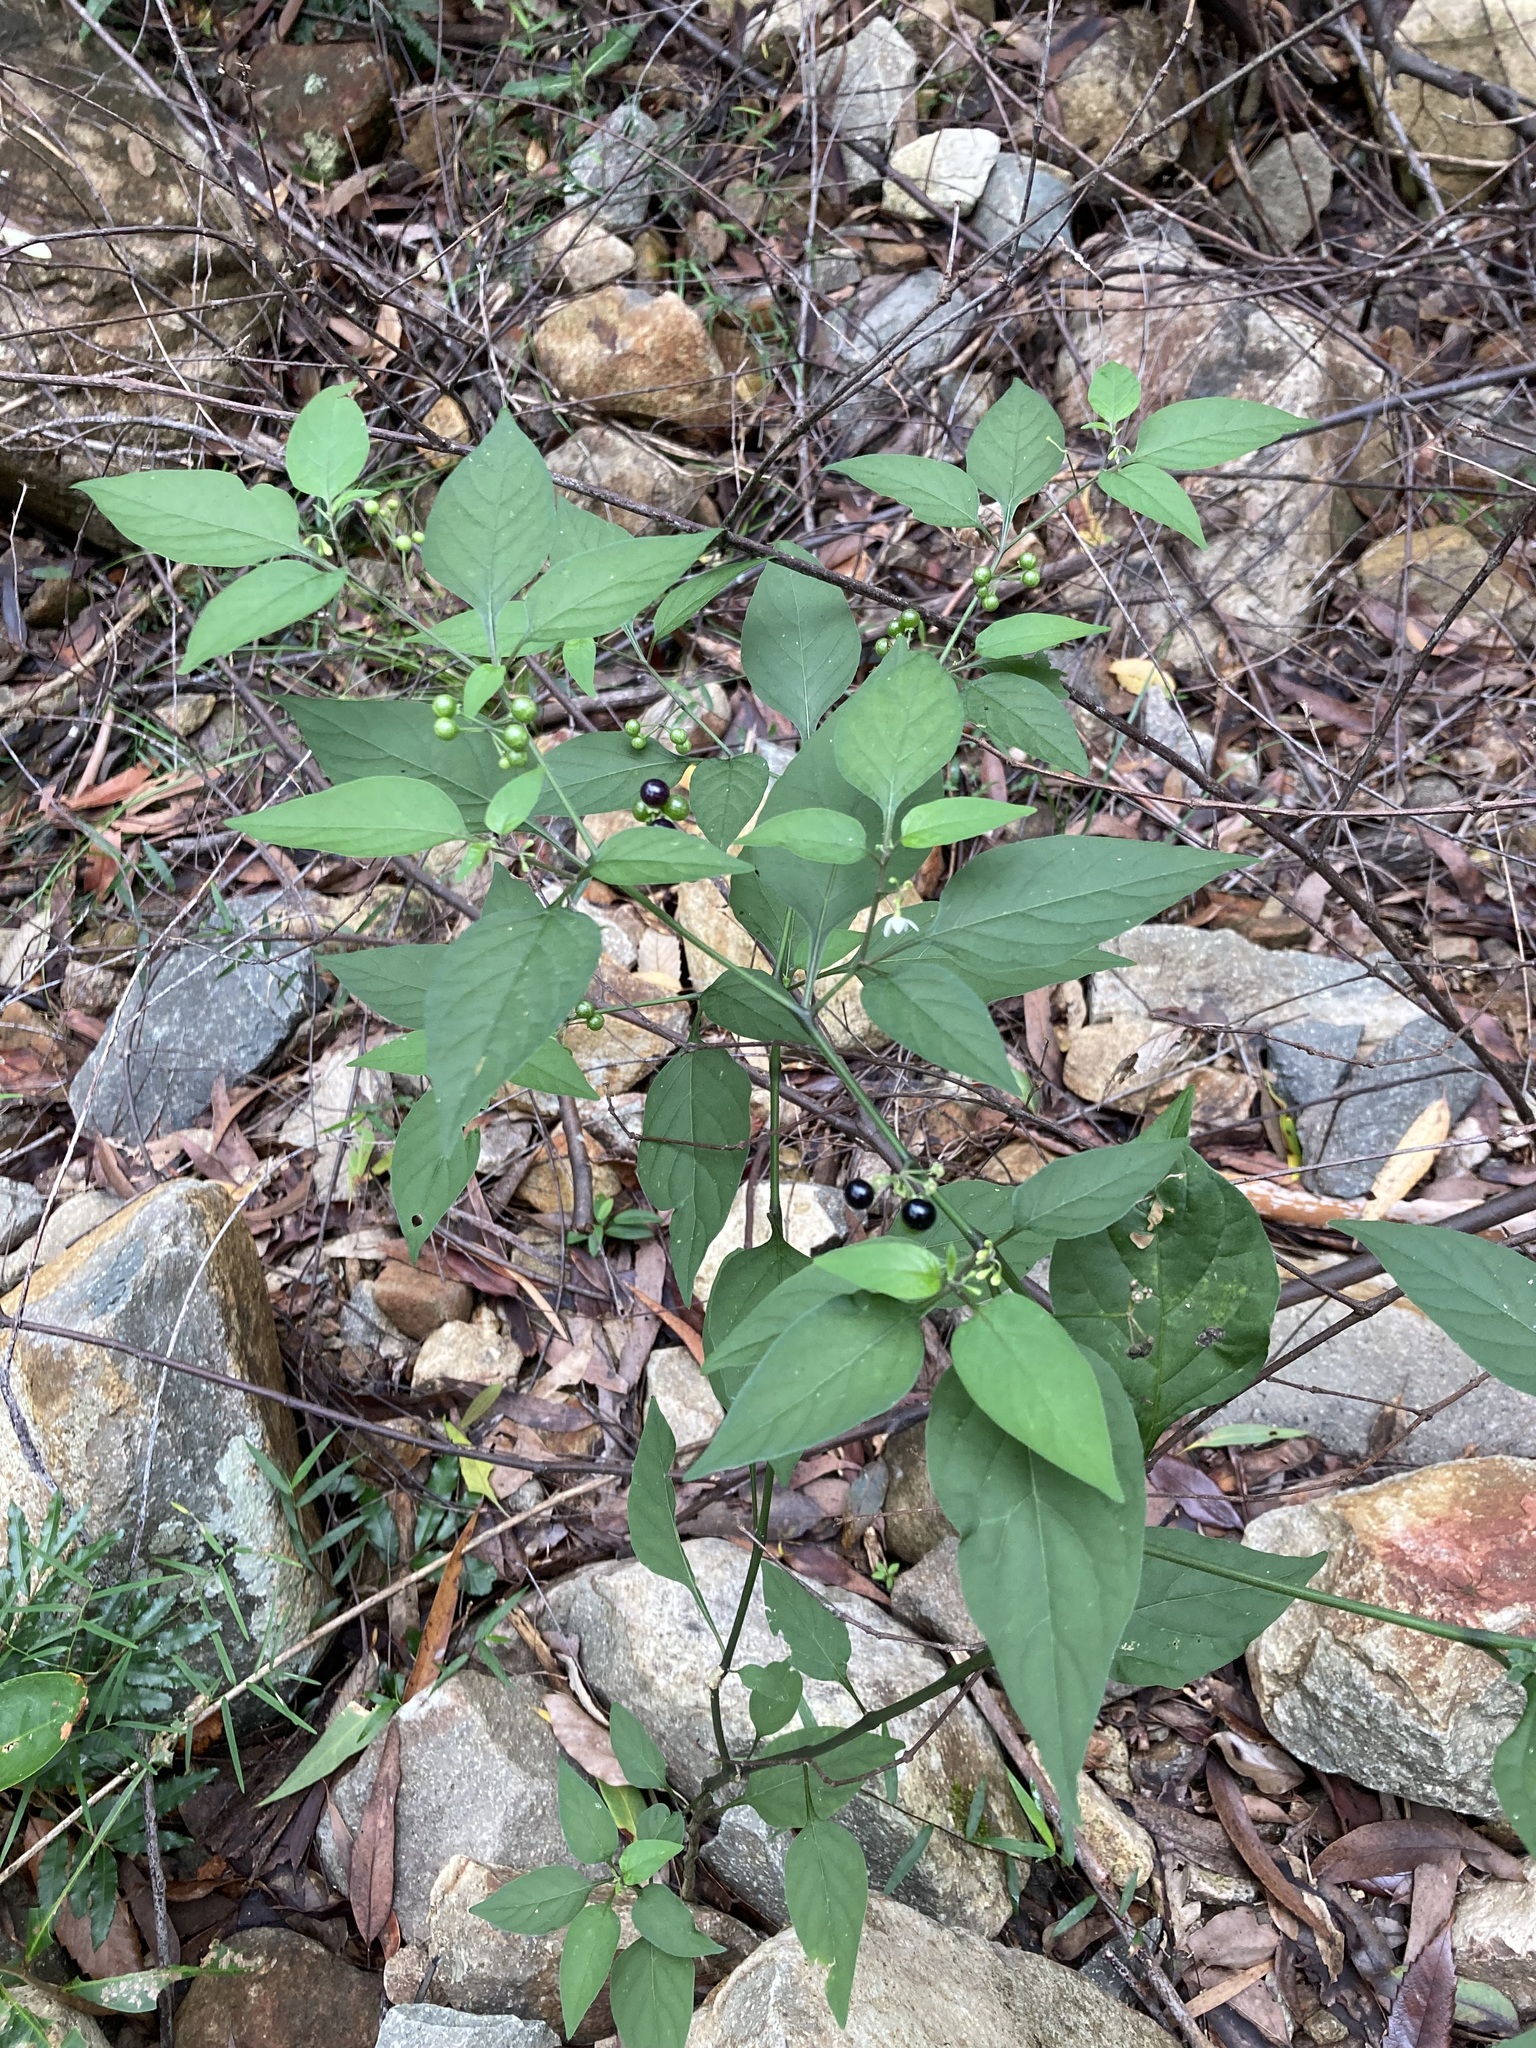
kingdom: Plantae
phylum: Tracheophyta
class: Magnoliopsida
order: Solanales
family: Solanaceae
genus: Solanum
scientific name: Solanum americanum
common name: American black nightshade
